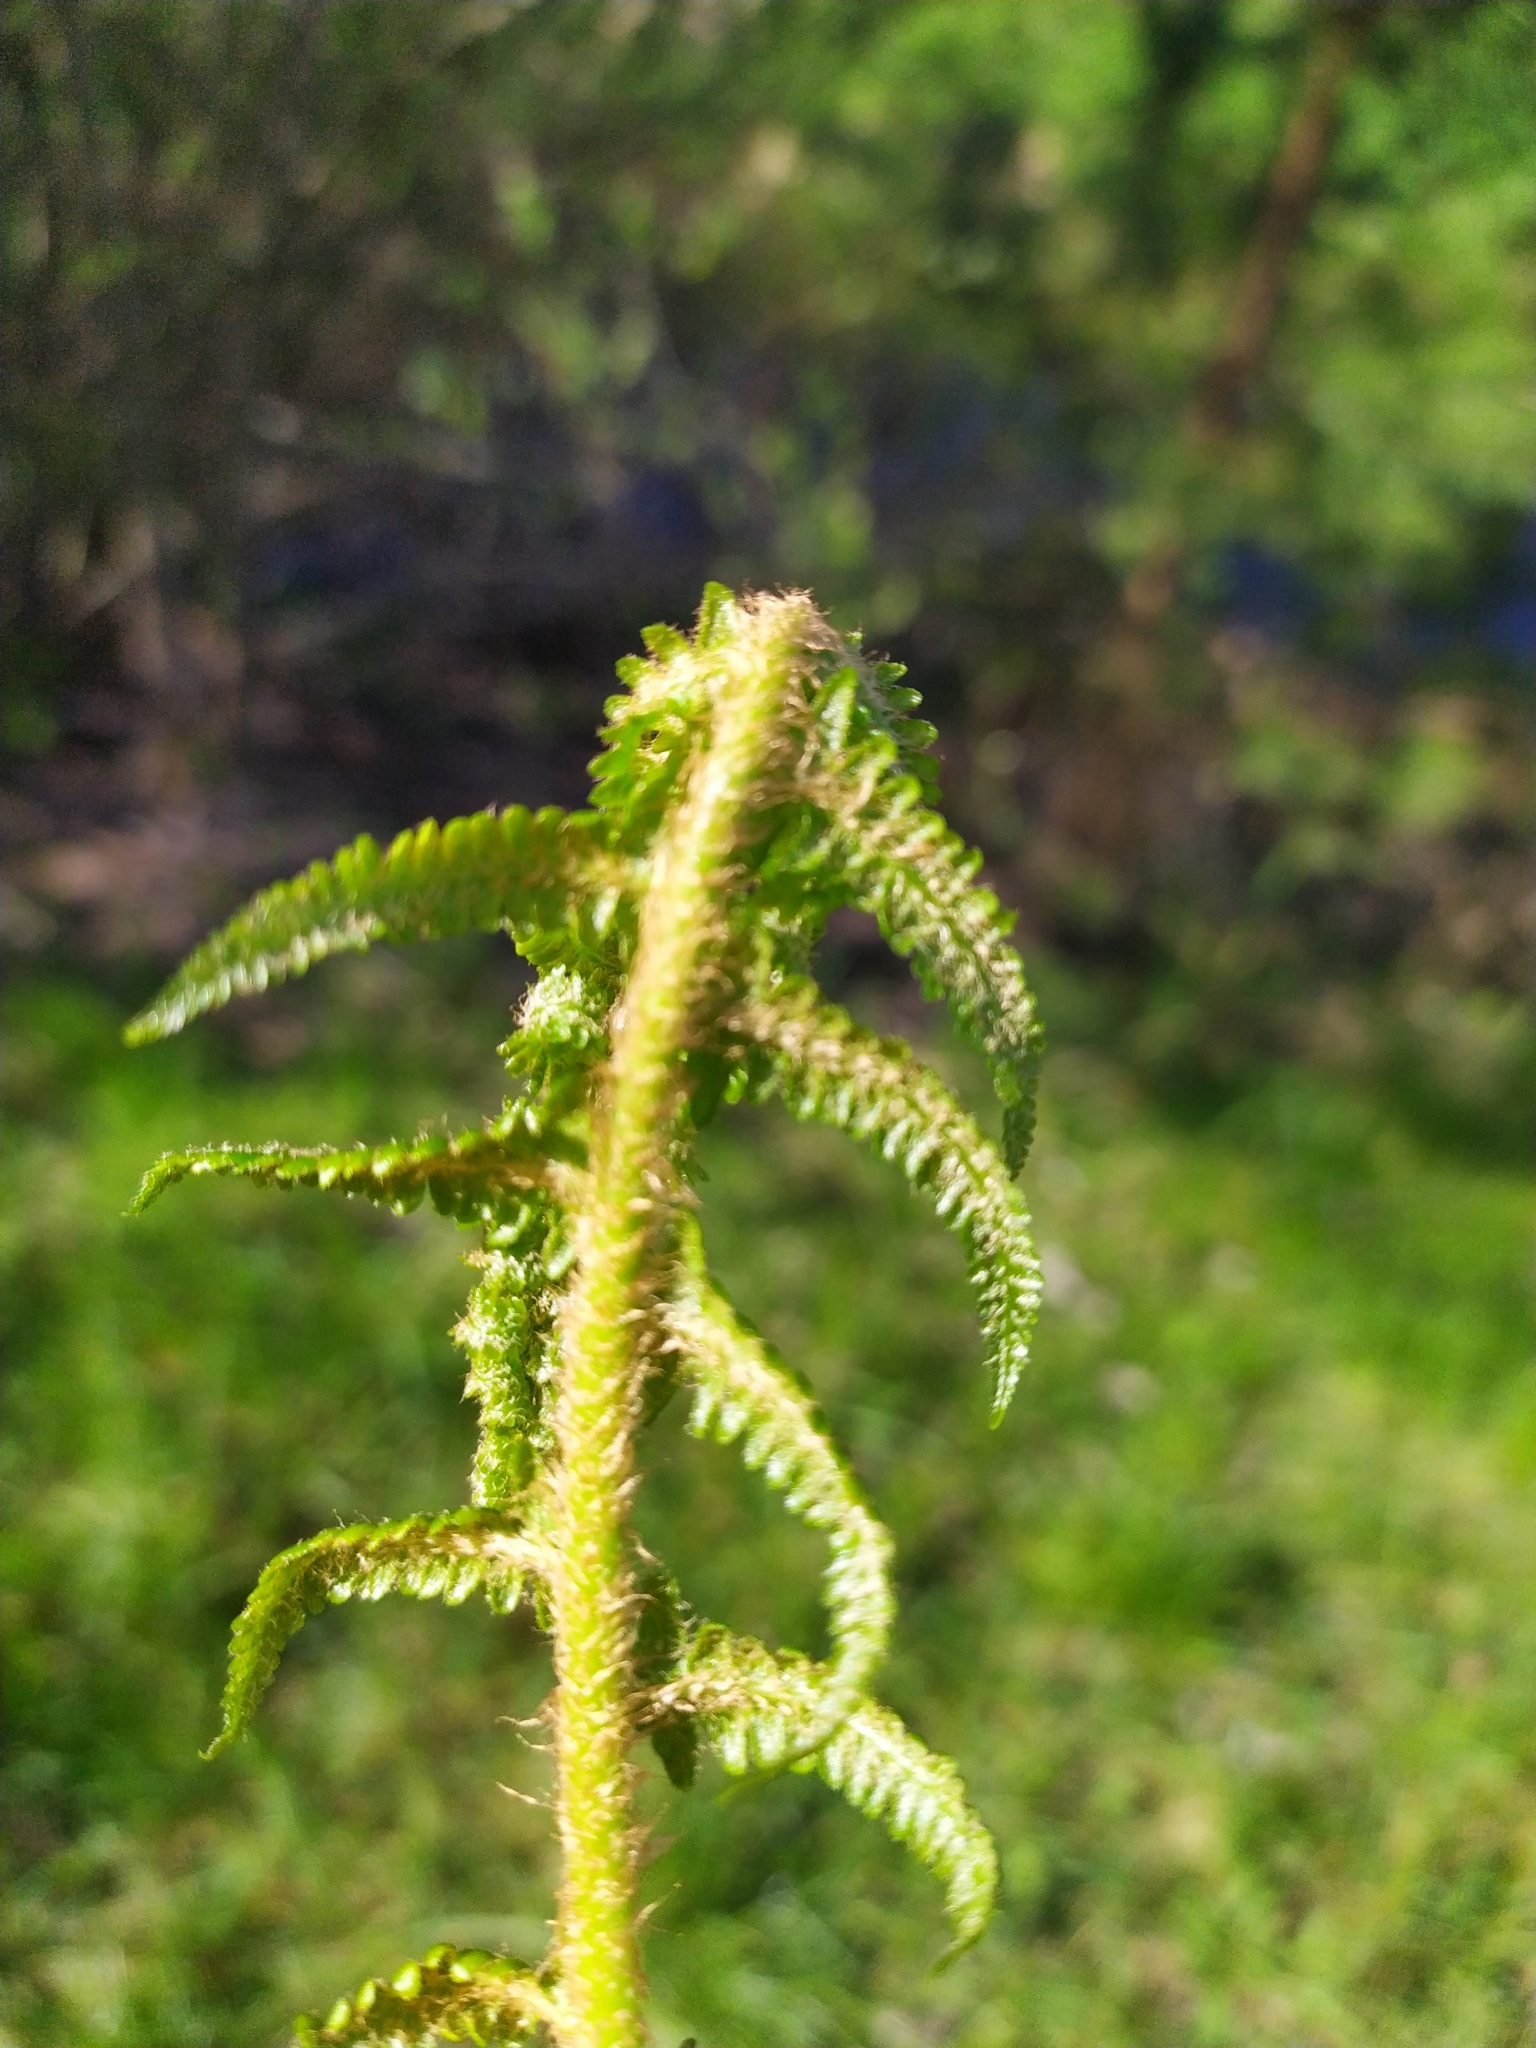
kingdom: Plantae
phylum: Tracheophyta
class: Polypodiopsida
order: Polypodiales
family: Dryopteridaceae
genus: Dryopteris
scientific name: Dryopteris filix-mas
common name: Male fern
